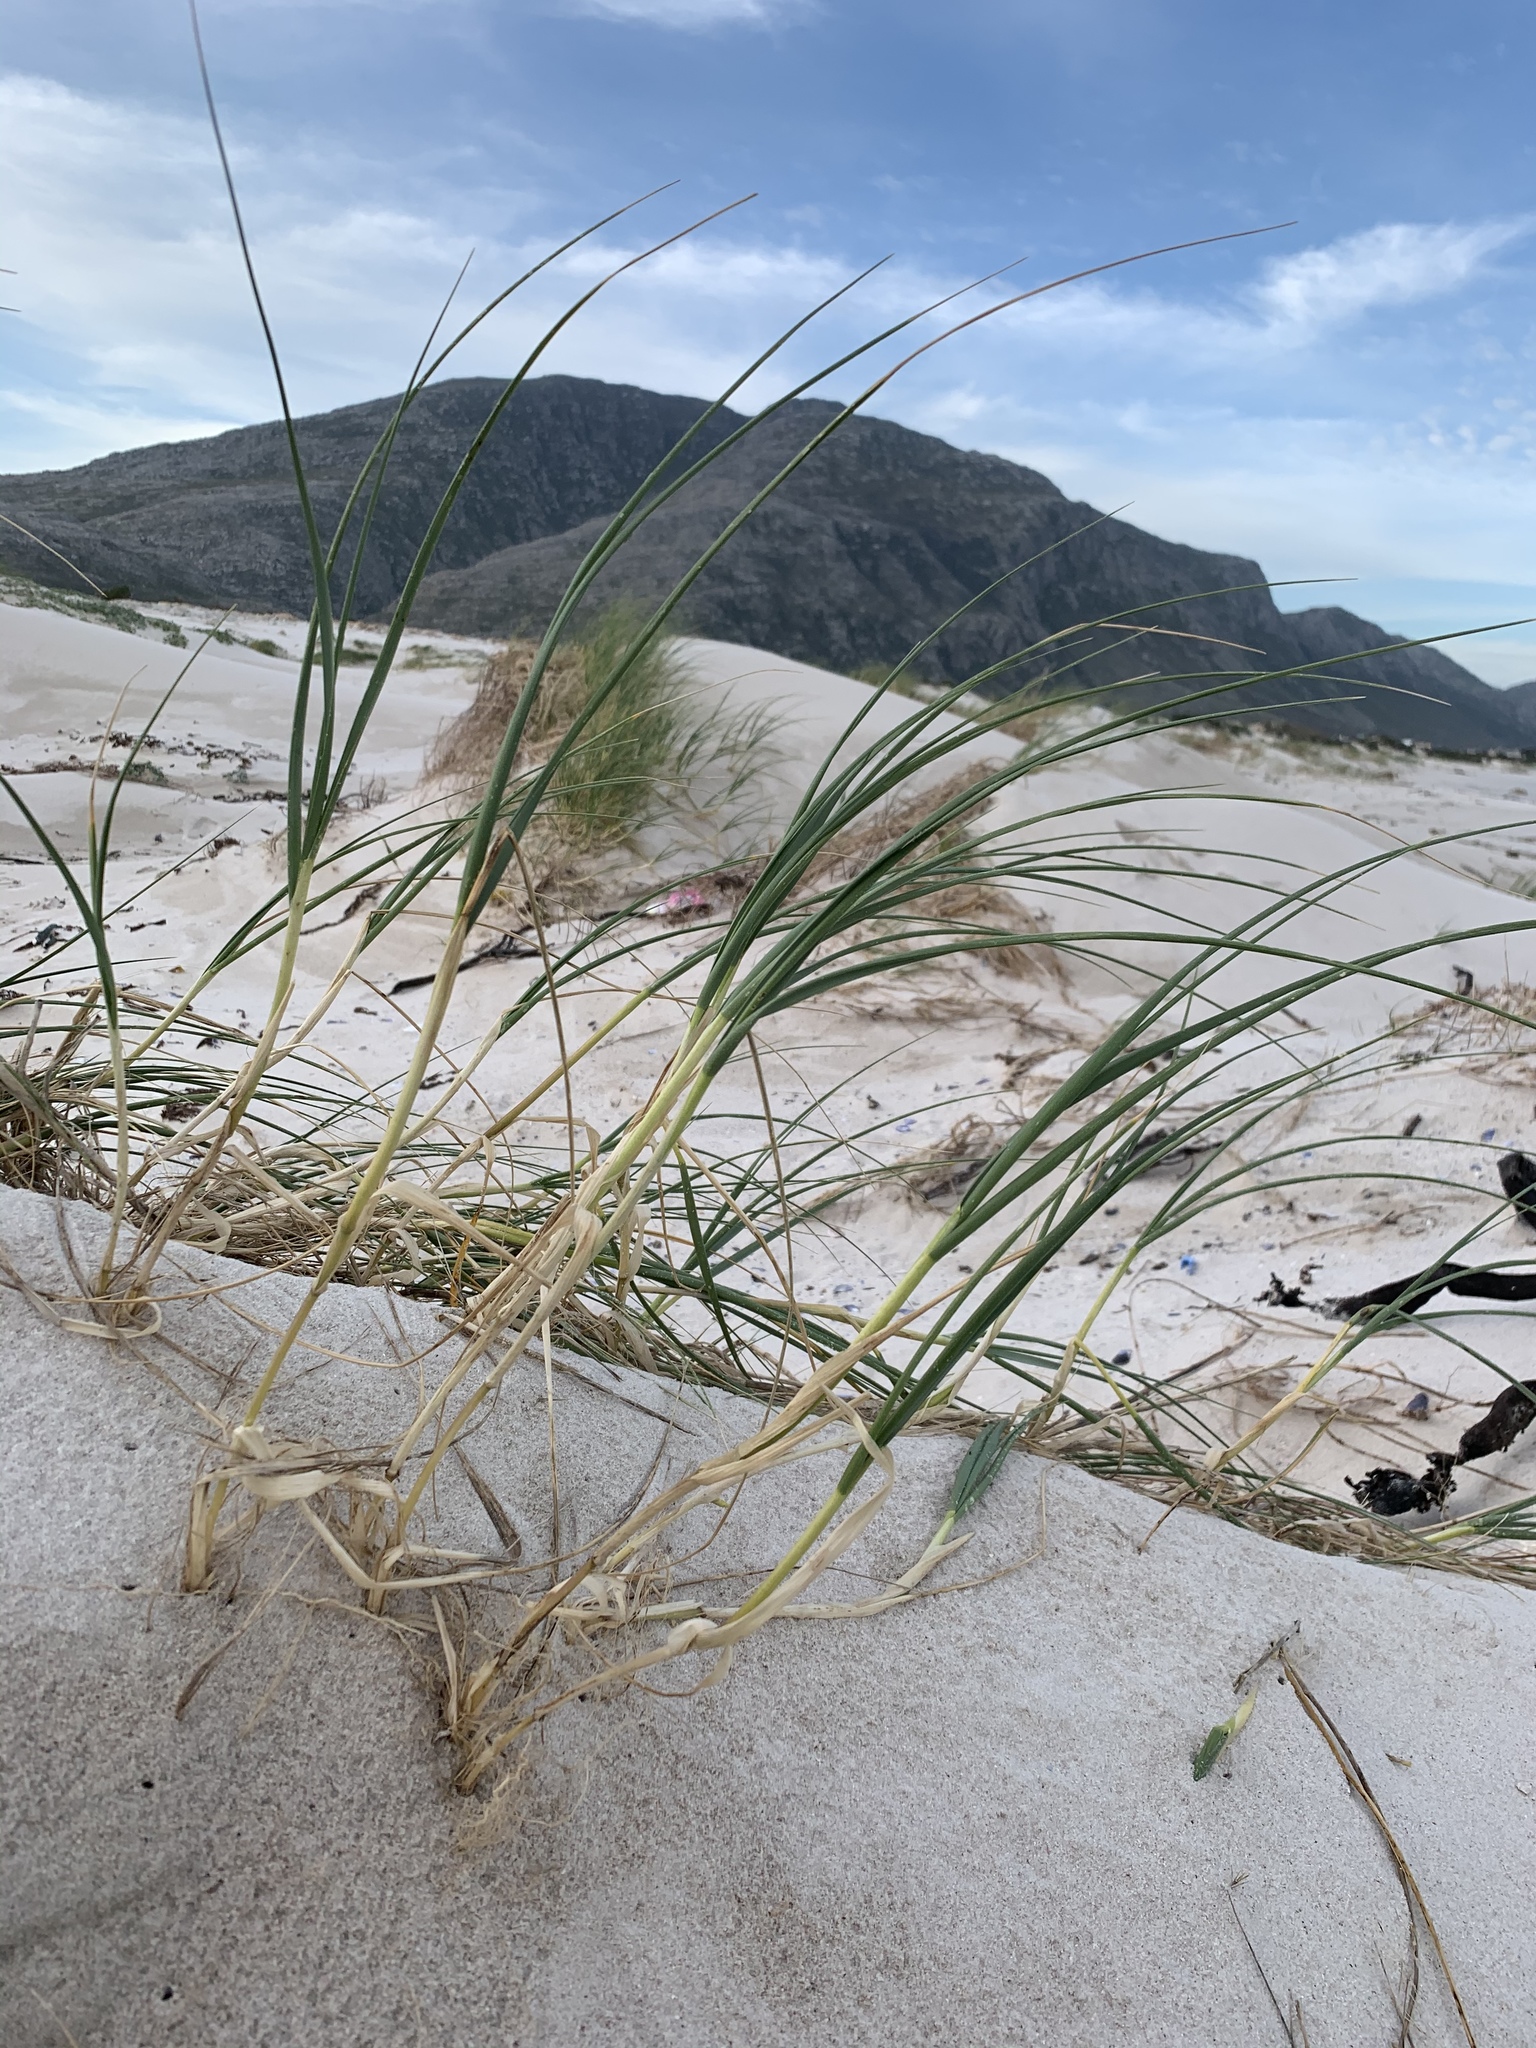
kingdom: Plantae
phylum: Tracheophyta
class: Liliopsida
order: Poales
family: Poaceae
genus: Thinopyrum
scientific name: Thinopyrum distichum
